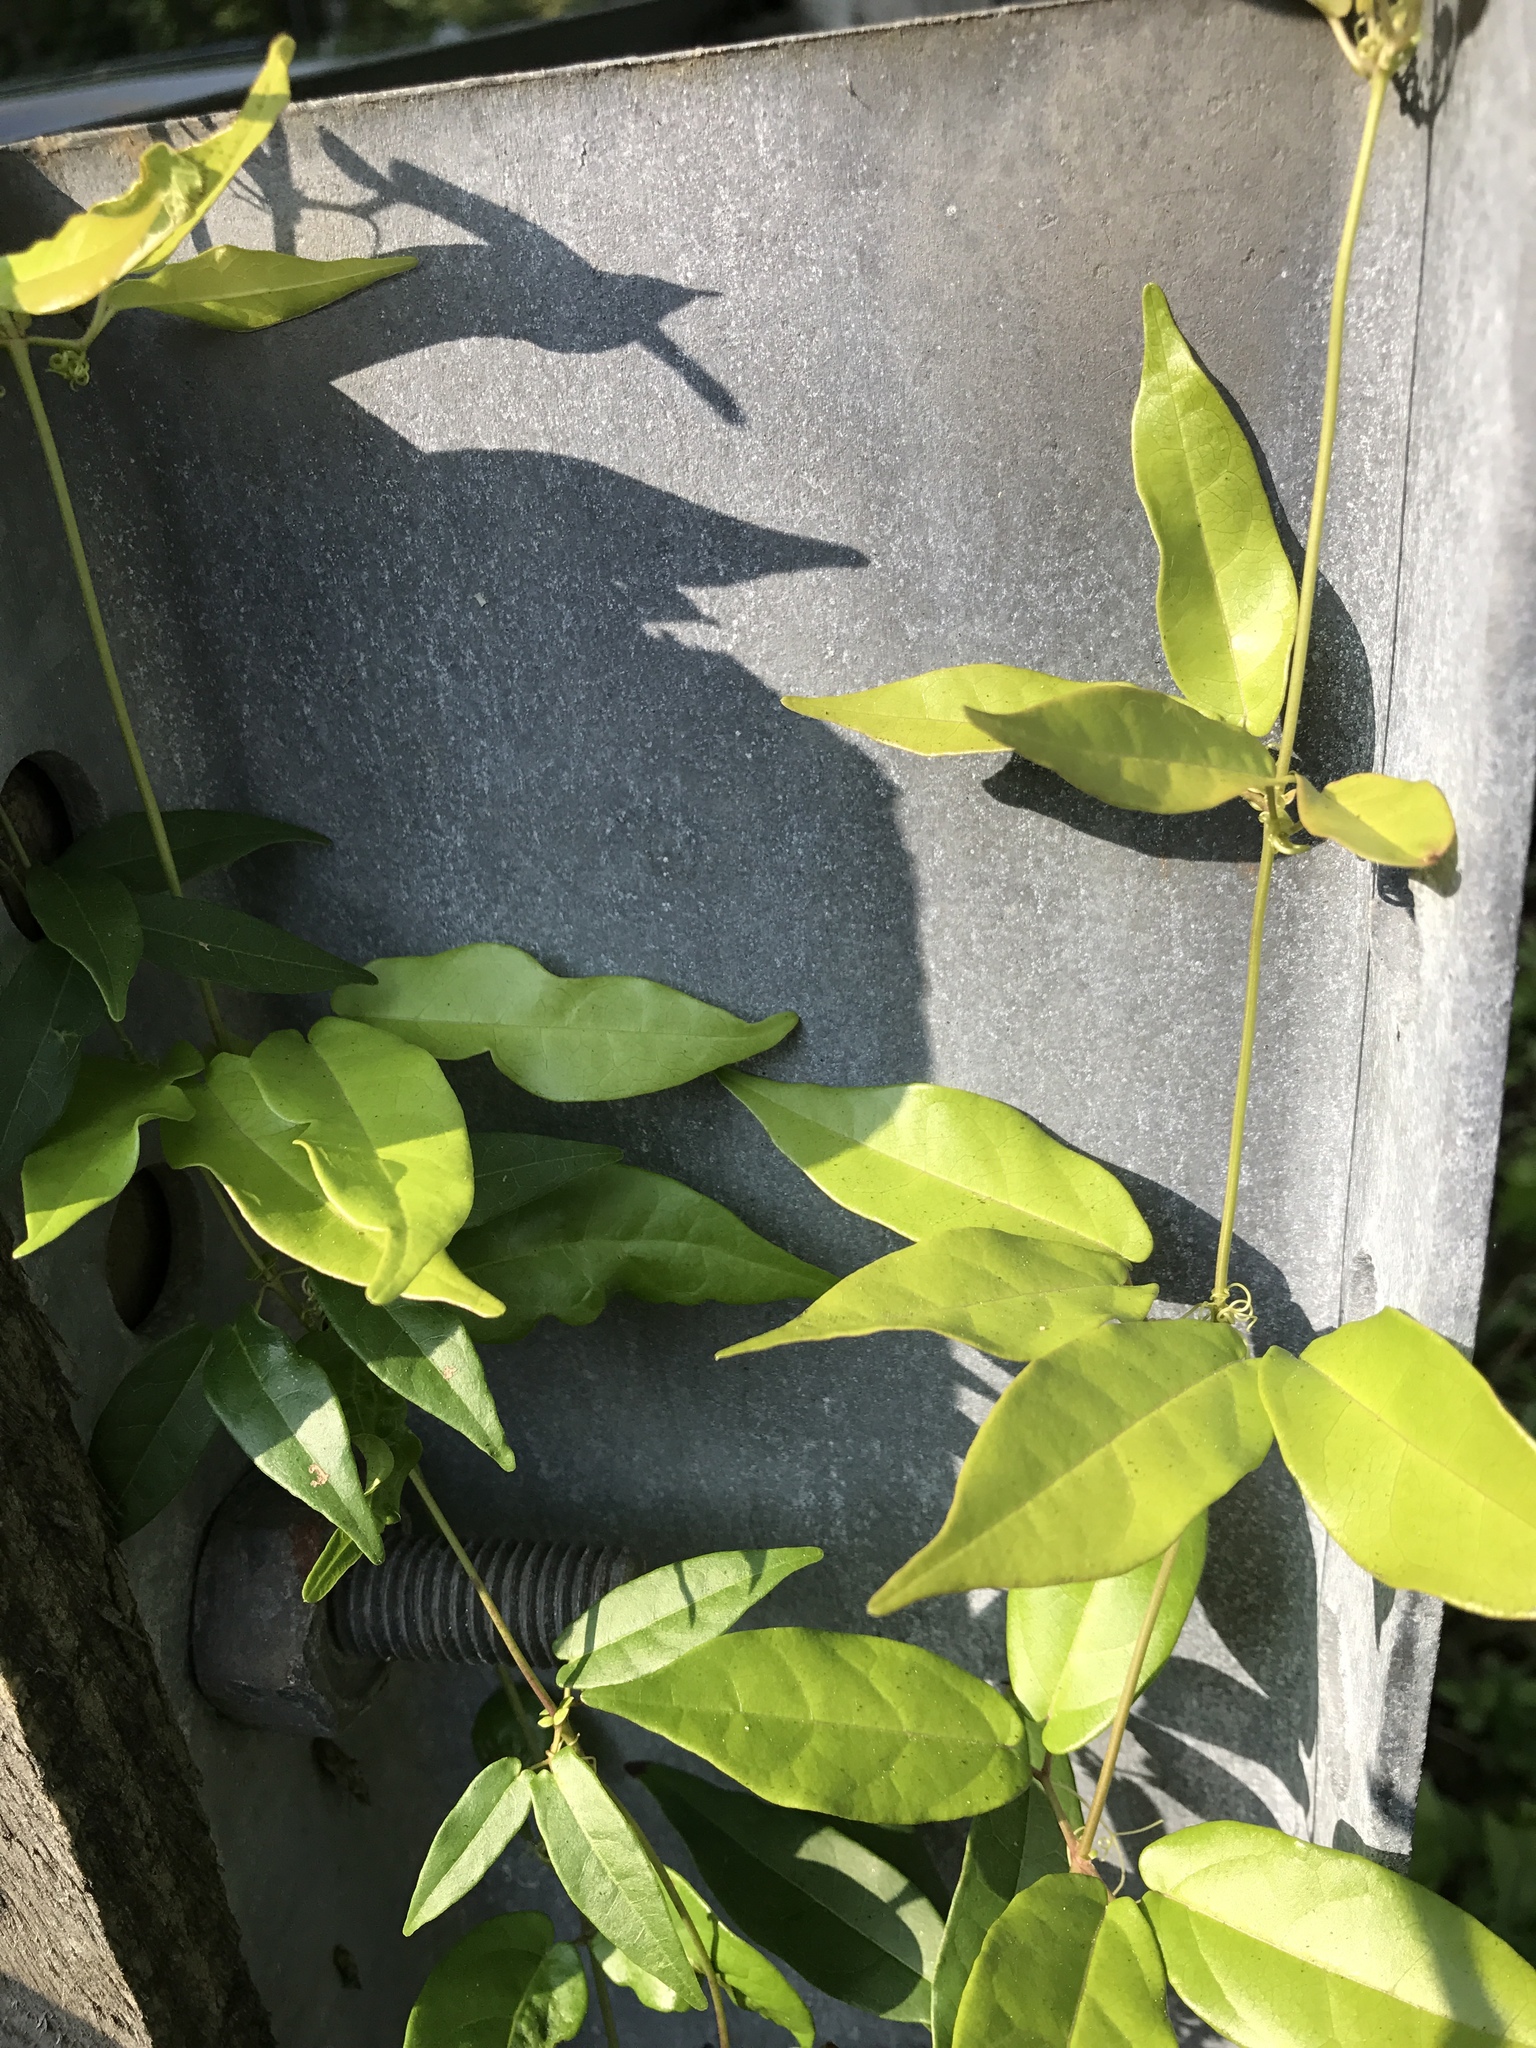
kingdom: Plantae
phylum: Tracheophyta
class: Magnoliopsida
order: Lamiales
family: Bignoniaceae
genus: Bignonia
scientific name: Bignonia capreolata
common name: Crossvine
